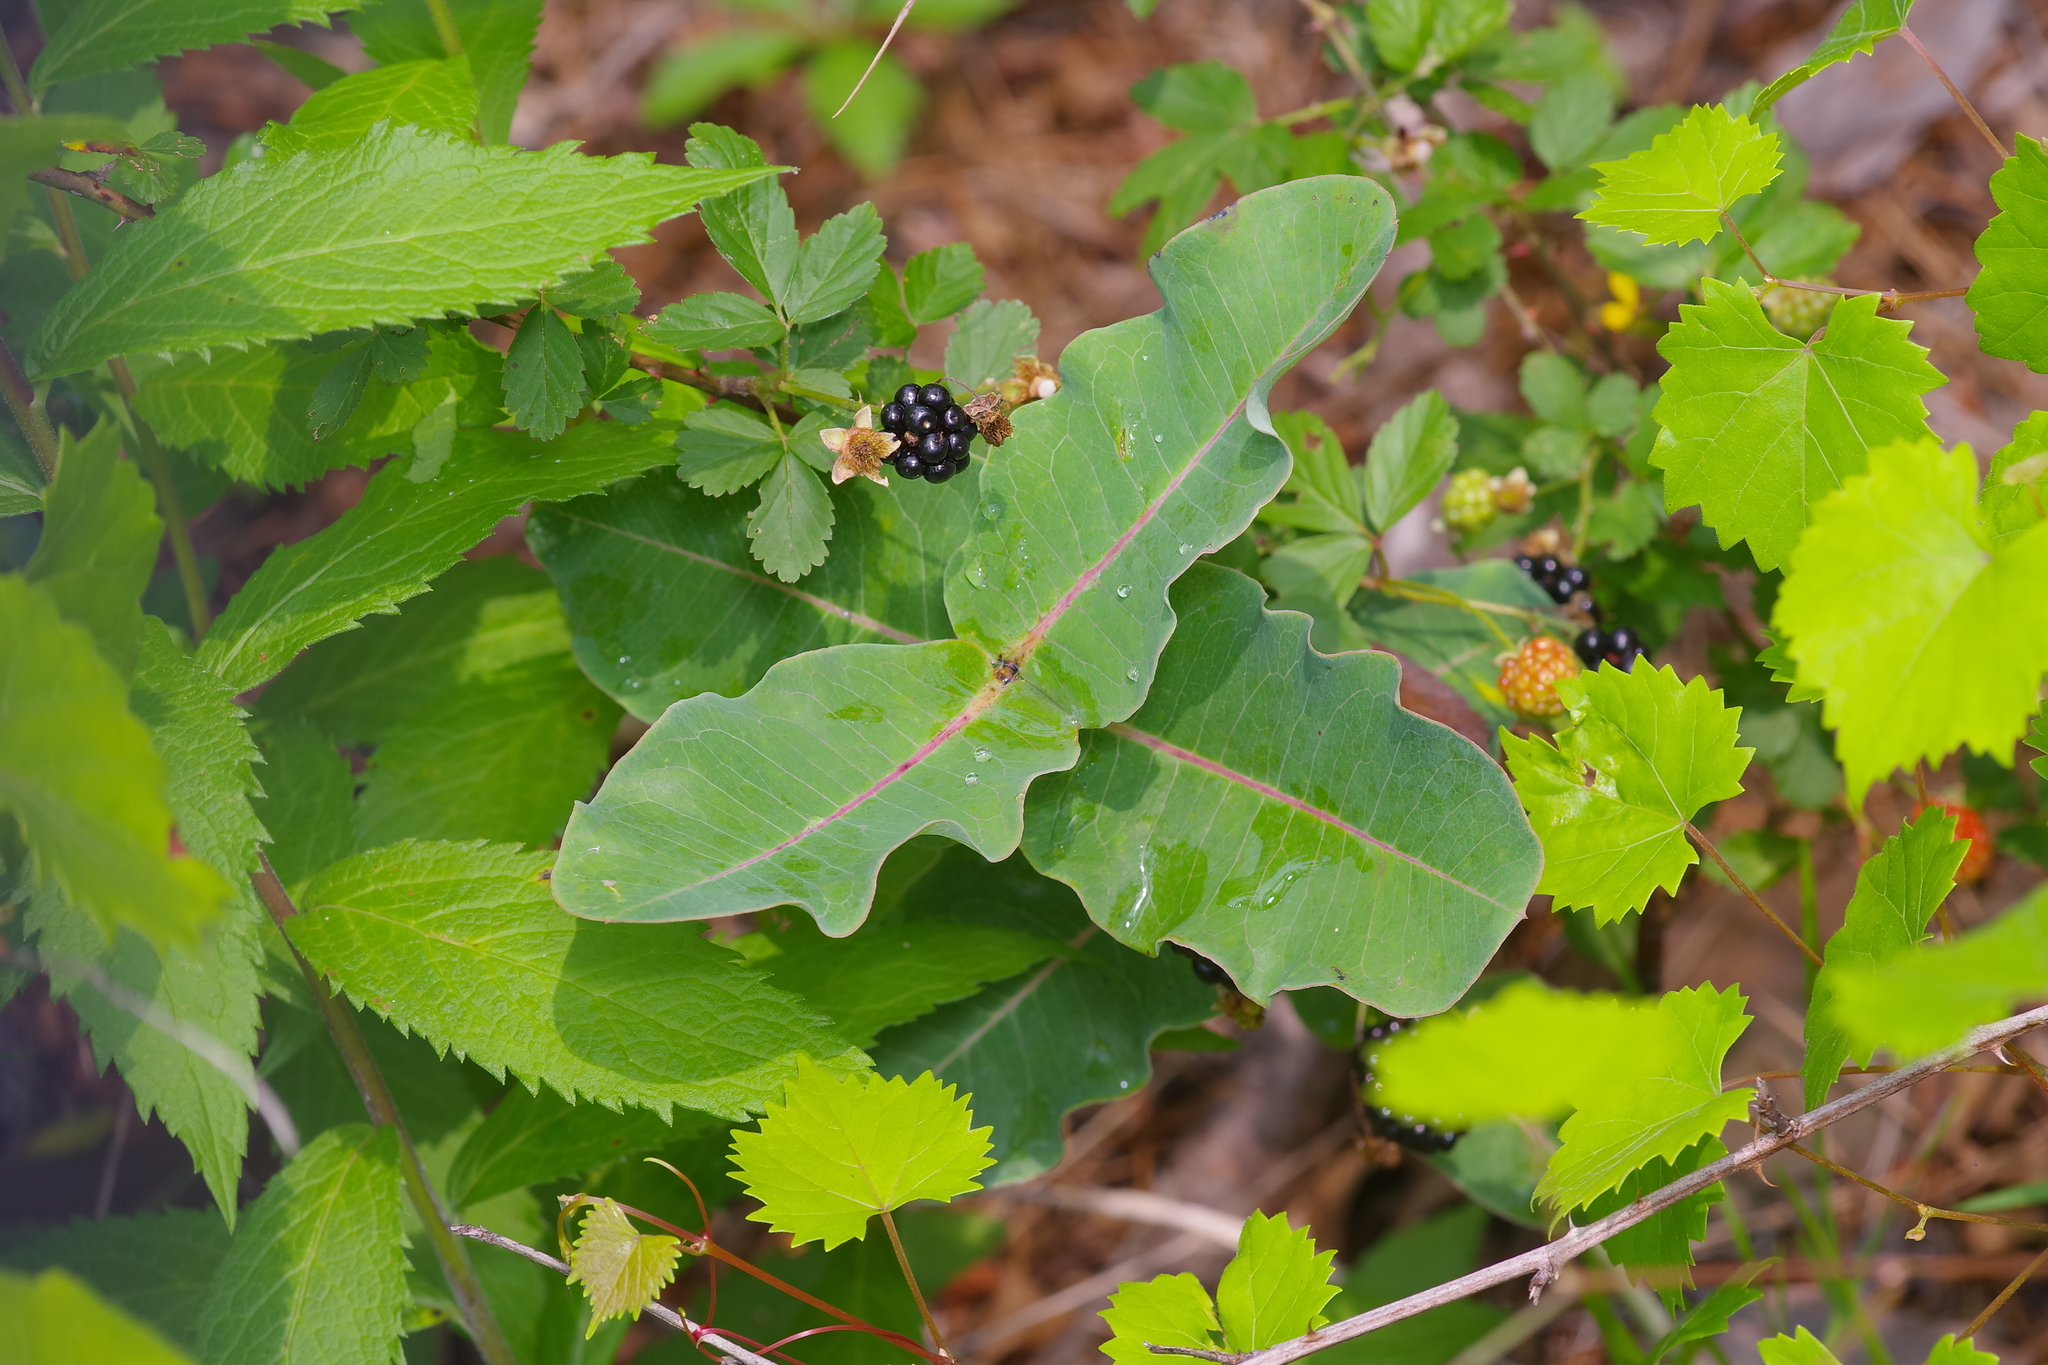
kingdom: Plantae
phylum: Tracheophyta
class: Magnoliopsida
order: Gentianales
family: Apocynaceae
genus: Asclepias
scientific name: Asclepias amplexicaulis
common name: Blunt-leaf milkweed
